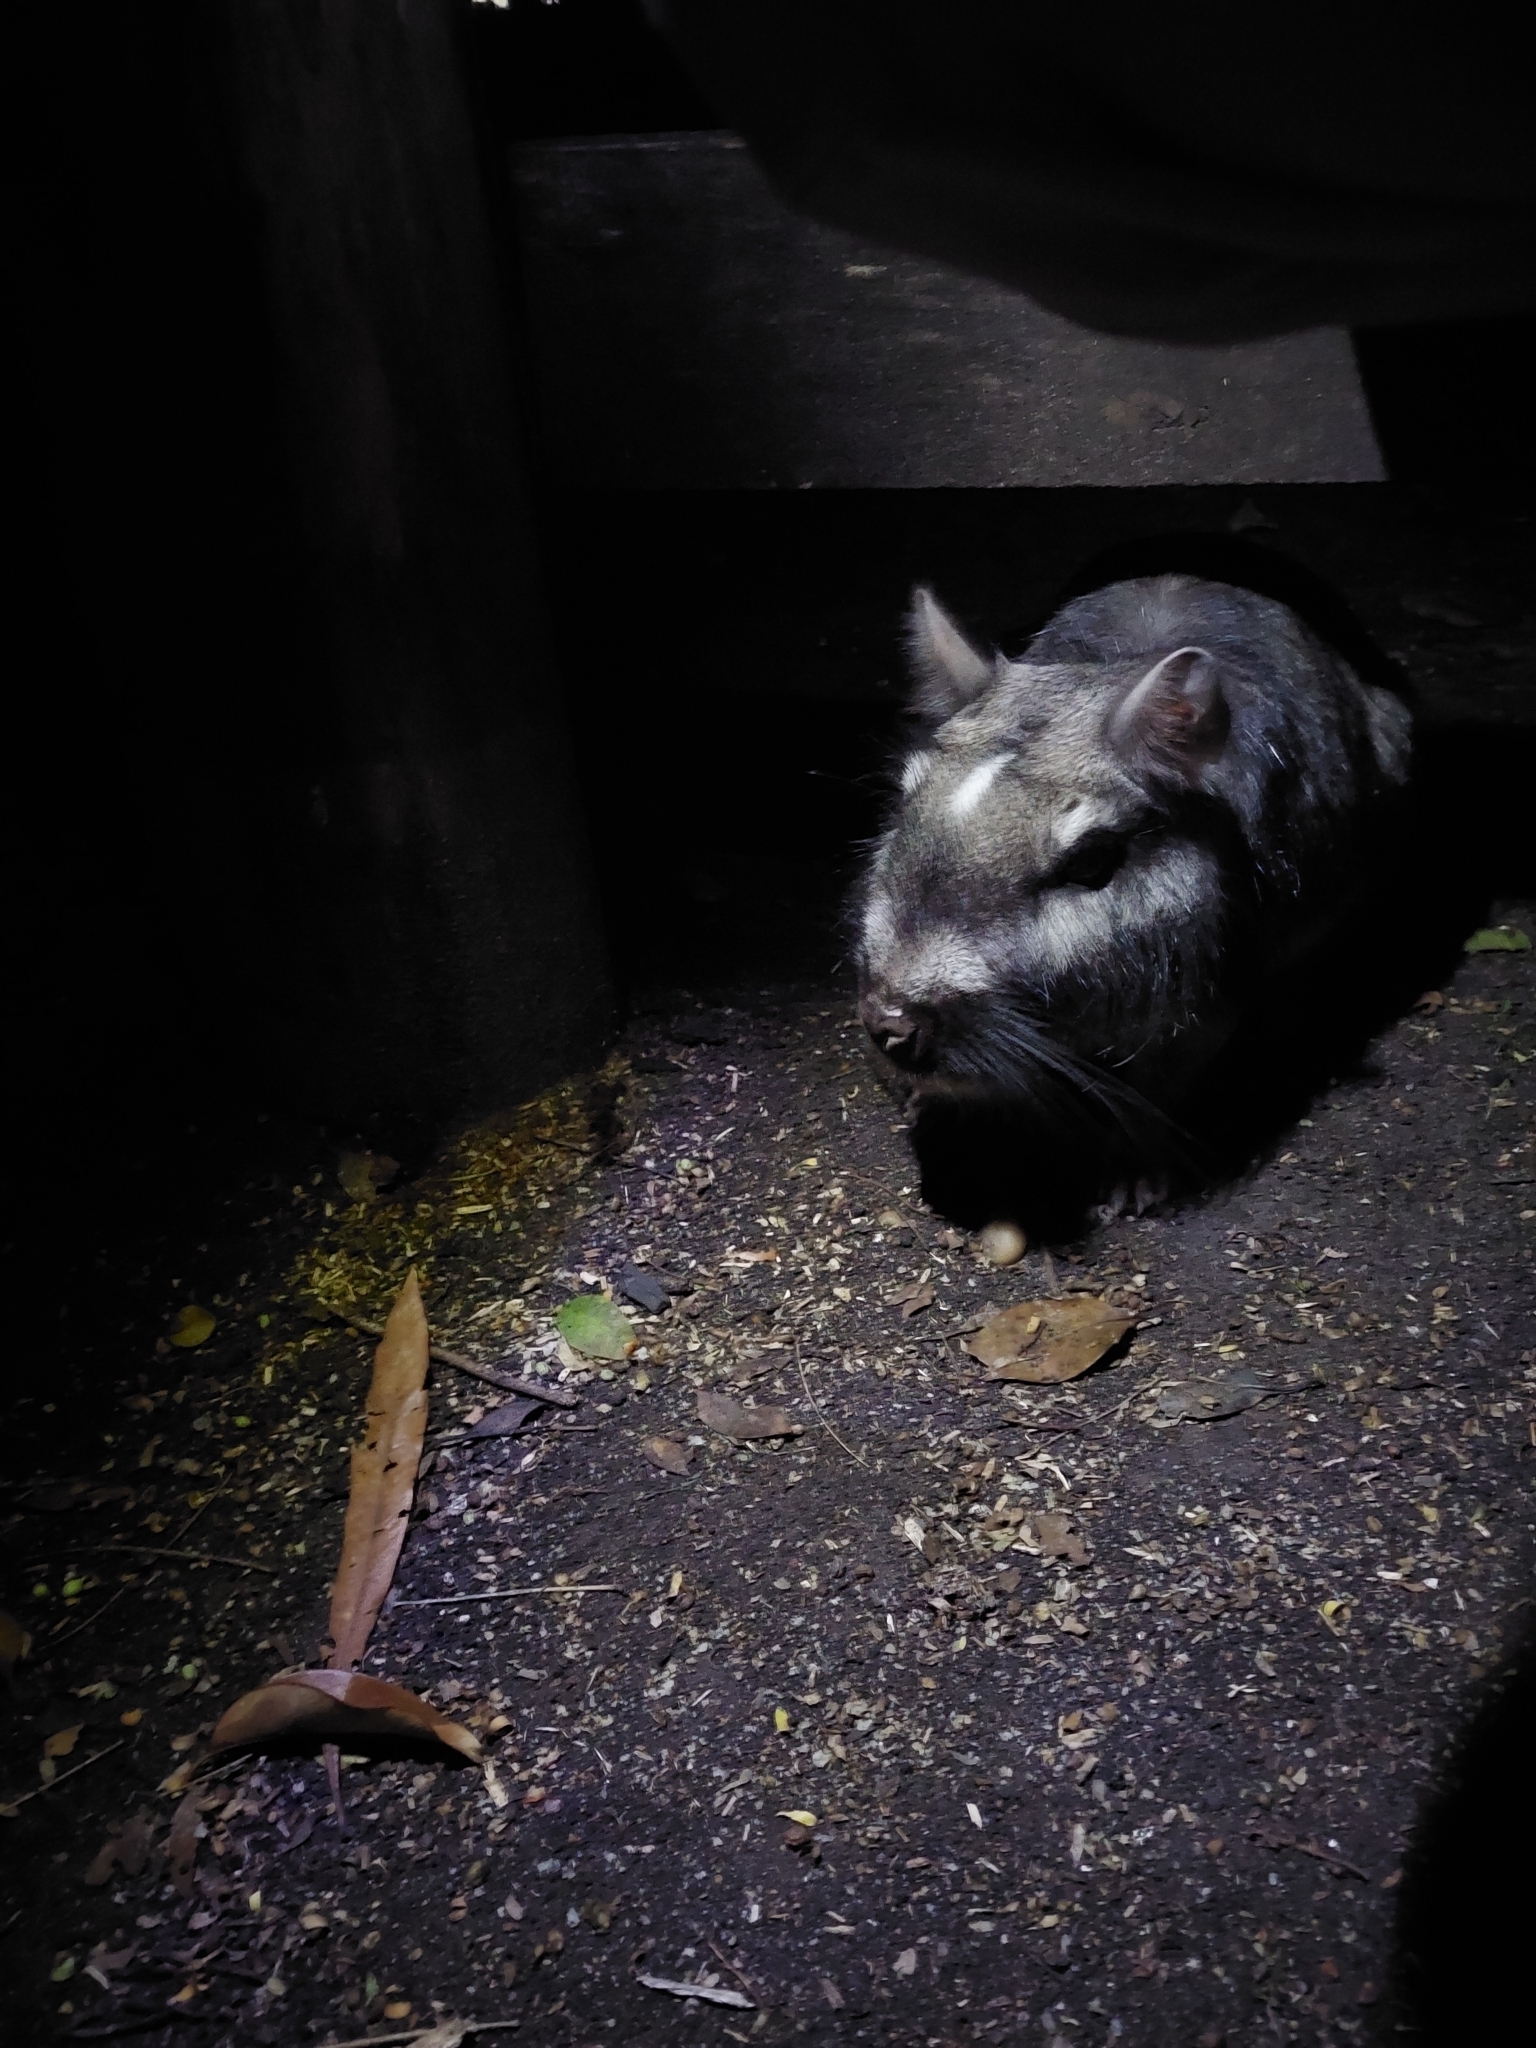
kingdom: Animalia
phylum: Chordata
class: Mammalia
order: Rodentia
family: Chinchillidae
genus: Lagostomus
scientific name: Lagostomus maximus
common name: Plains viscacha
